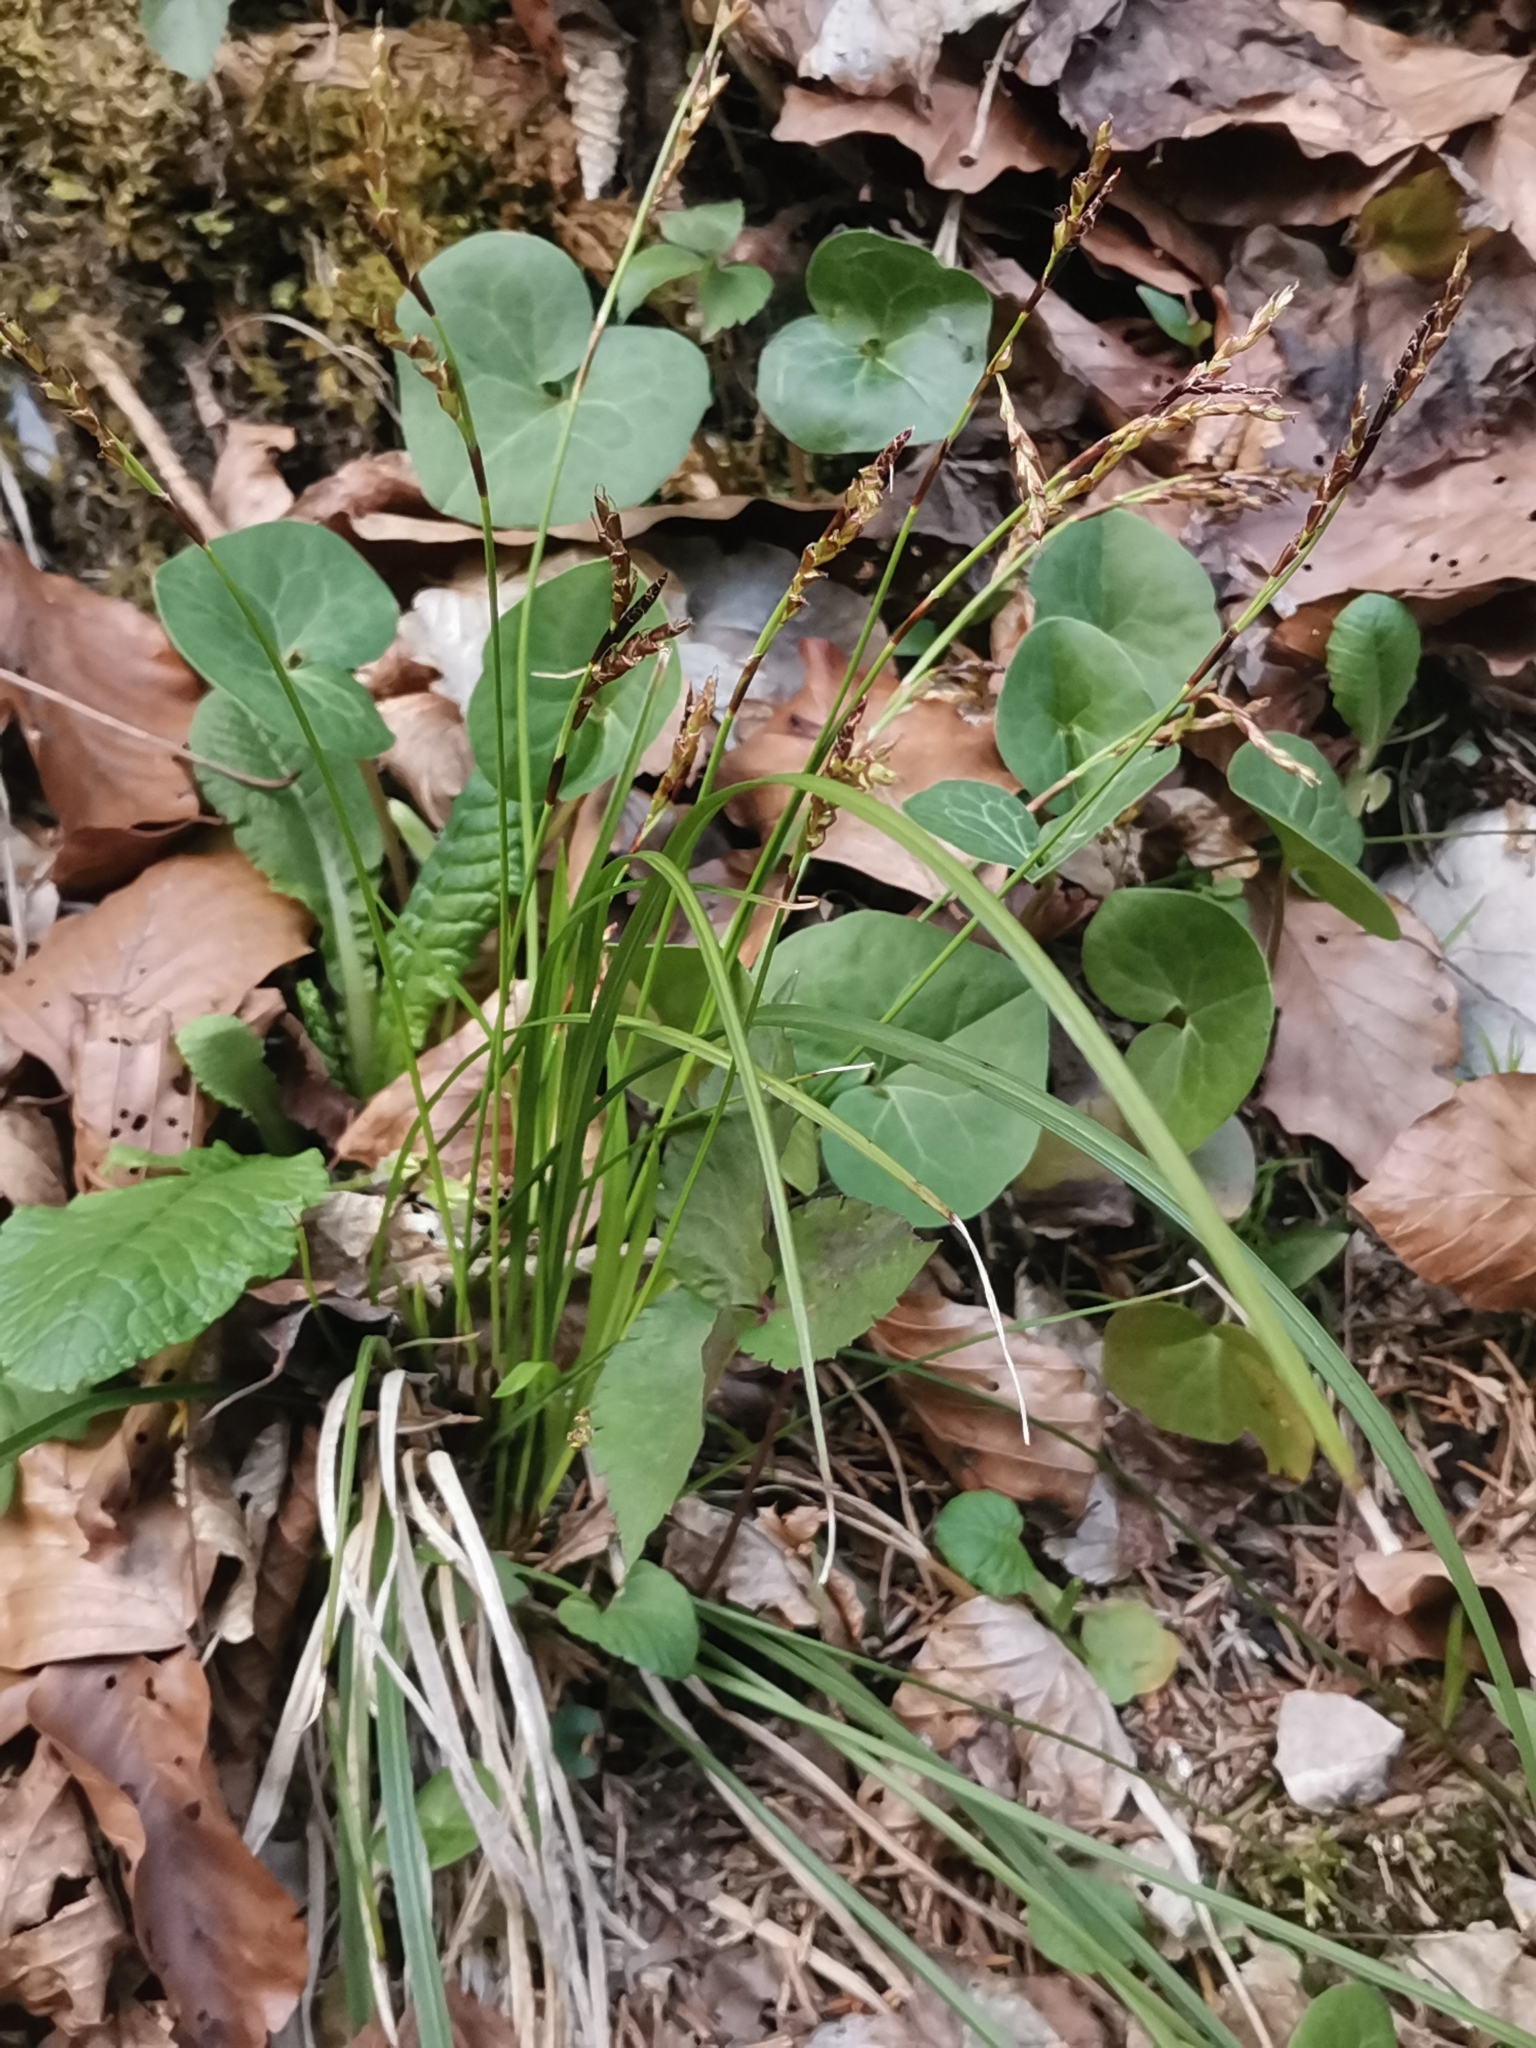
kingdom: Plantae
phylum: Tracheophyta
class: Liliopsida
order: Poales
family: Cyperaceae
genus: Carex
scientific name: Carex digitata
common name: Fingered sedge
